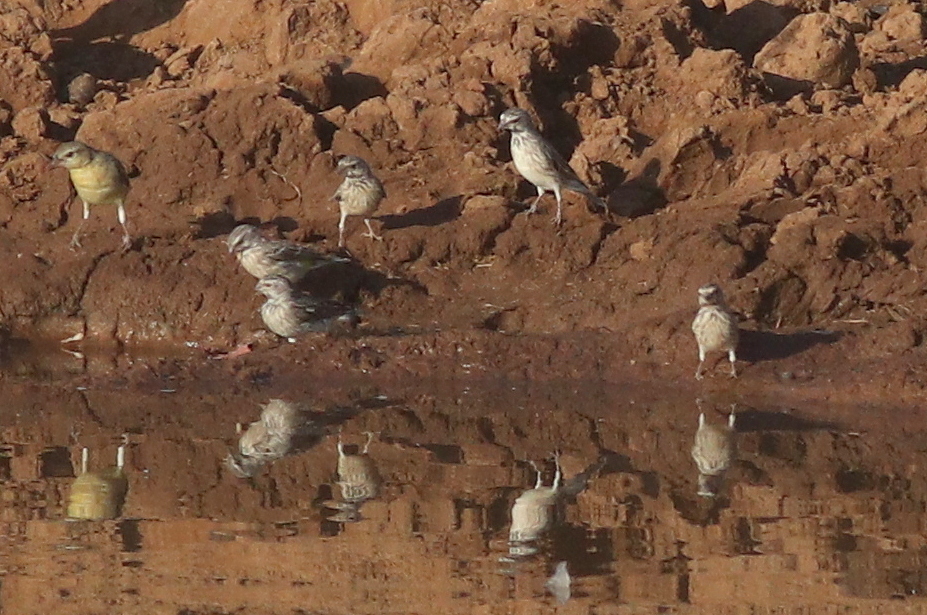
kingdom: Animalia
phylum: Chordata
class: Aves
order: Passeriformes
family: Fringillidae
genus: Crithagra
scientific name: Crithagra atrogularis
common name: Black-throated canary
